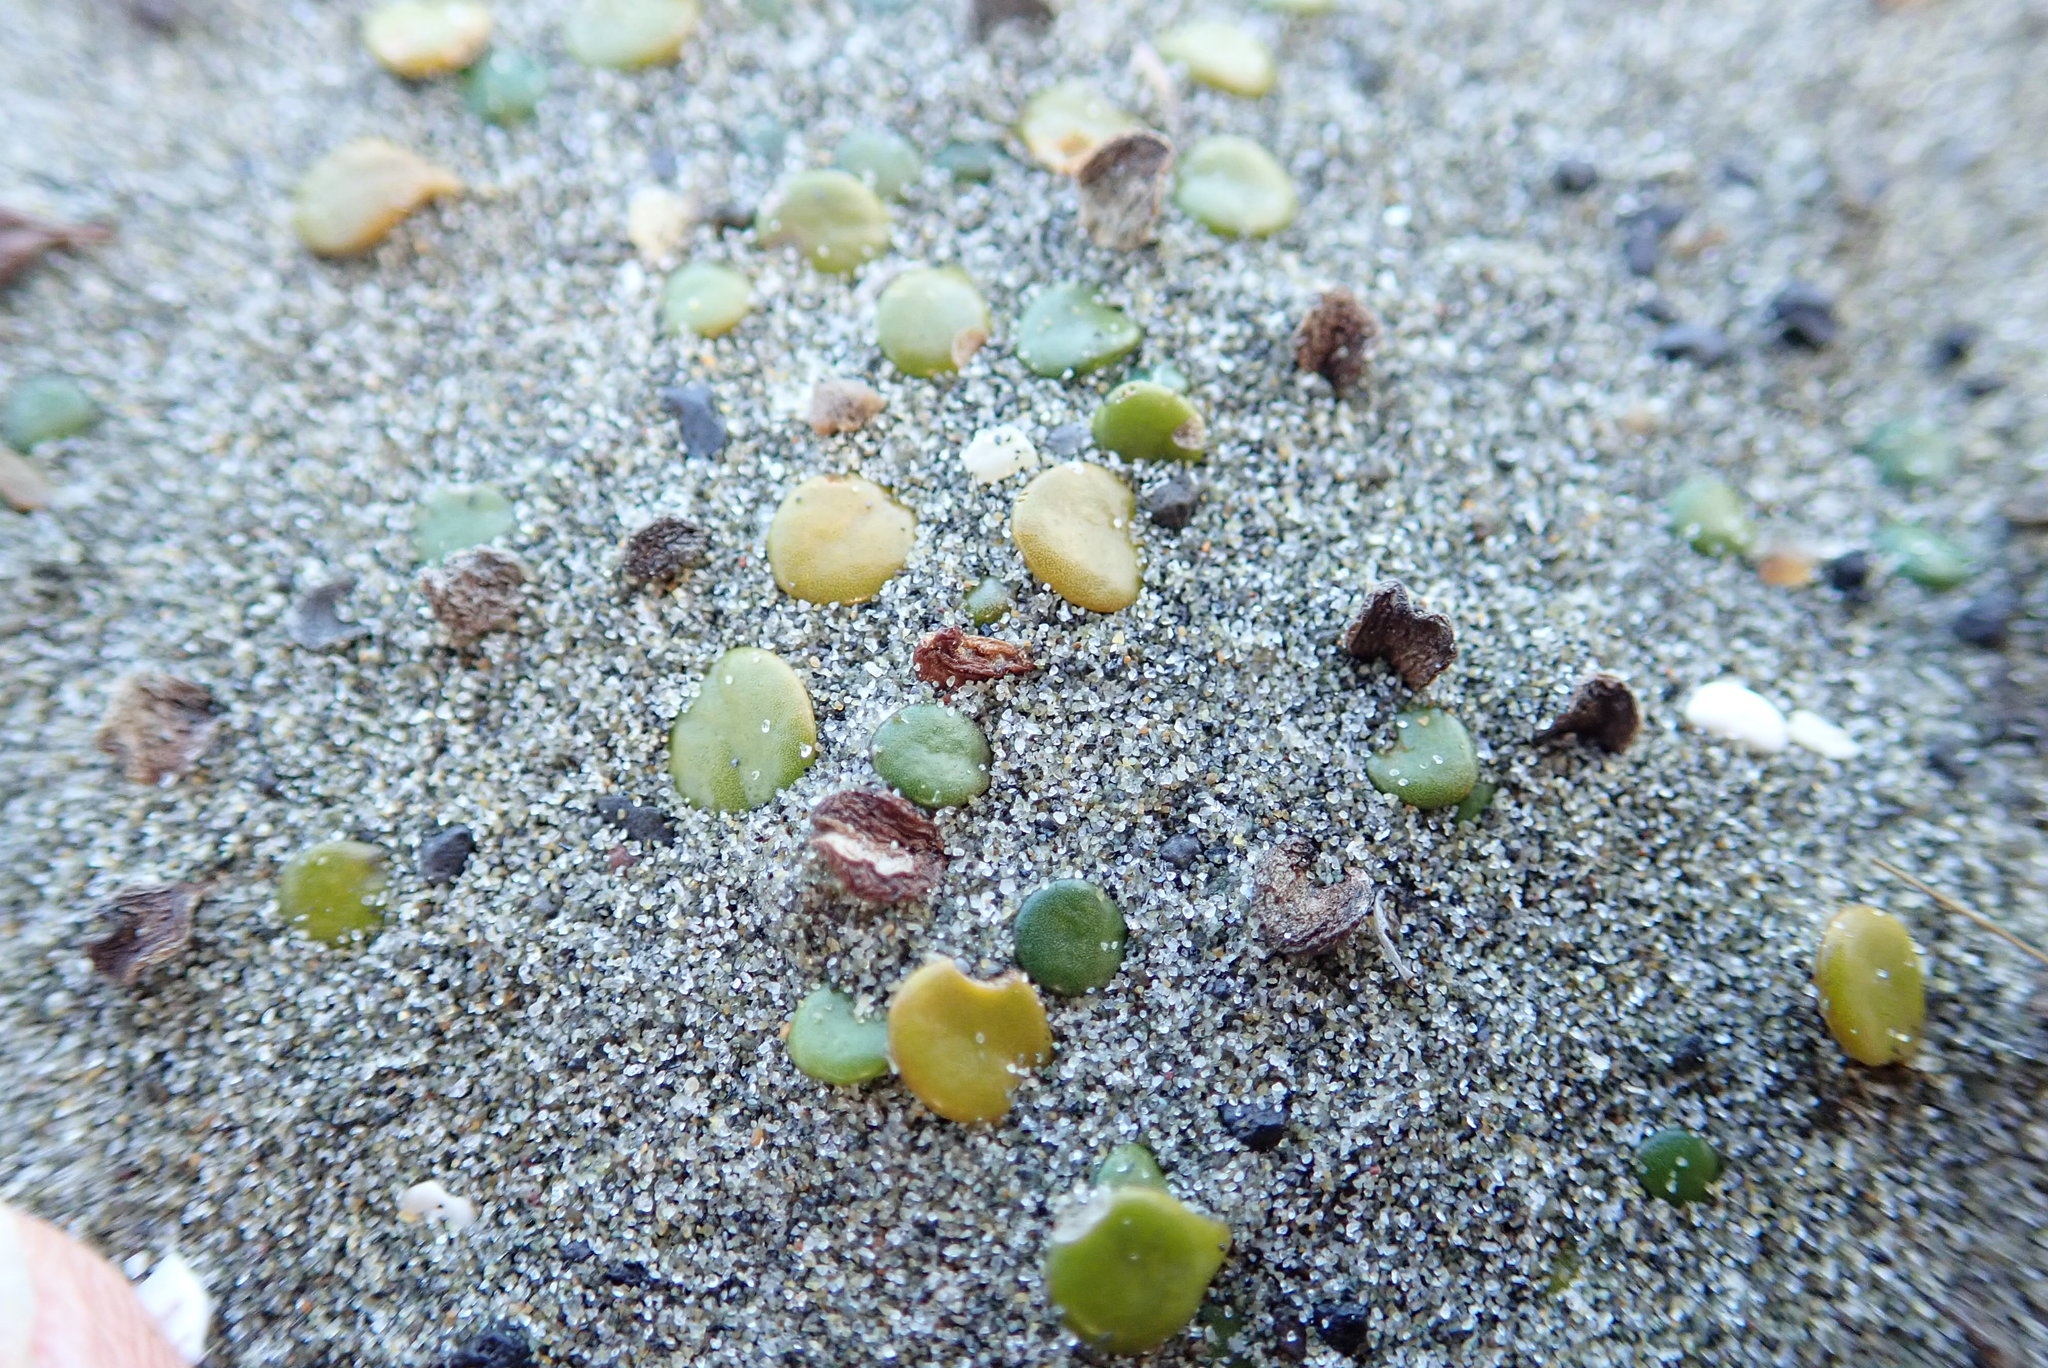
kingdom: Plantae
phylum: Tracheophyta
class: Magnoliopsida
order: Asterales
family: Goodeniaceae
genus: Goodenia
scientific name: Goodenia heenanii
